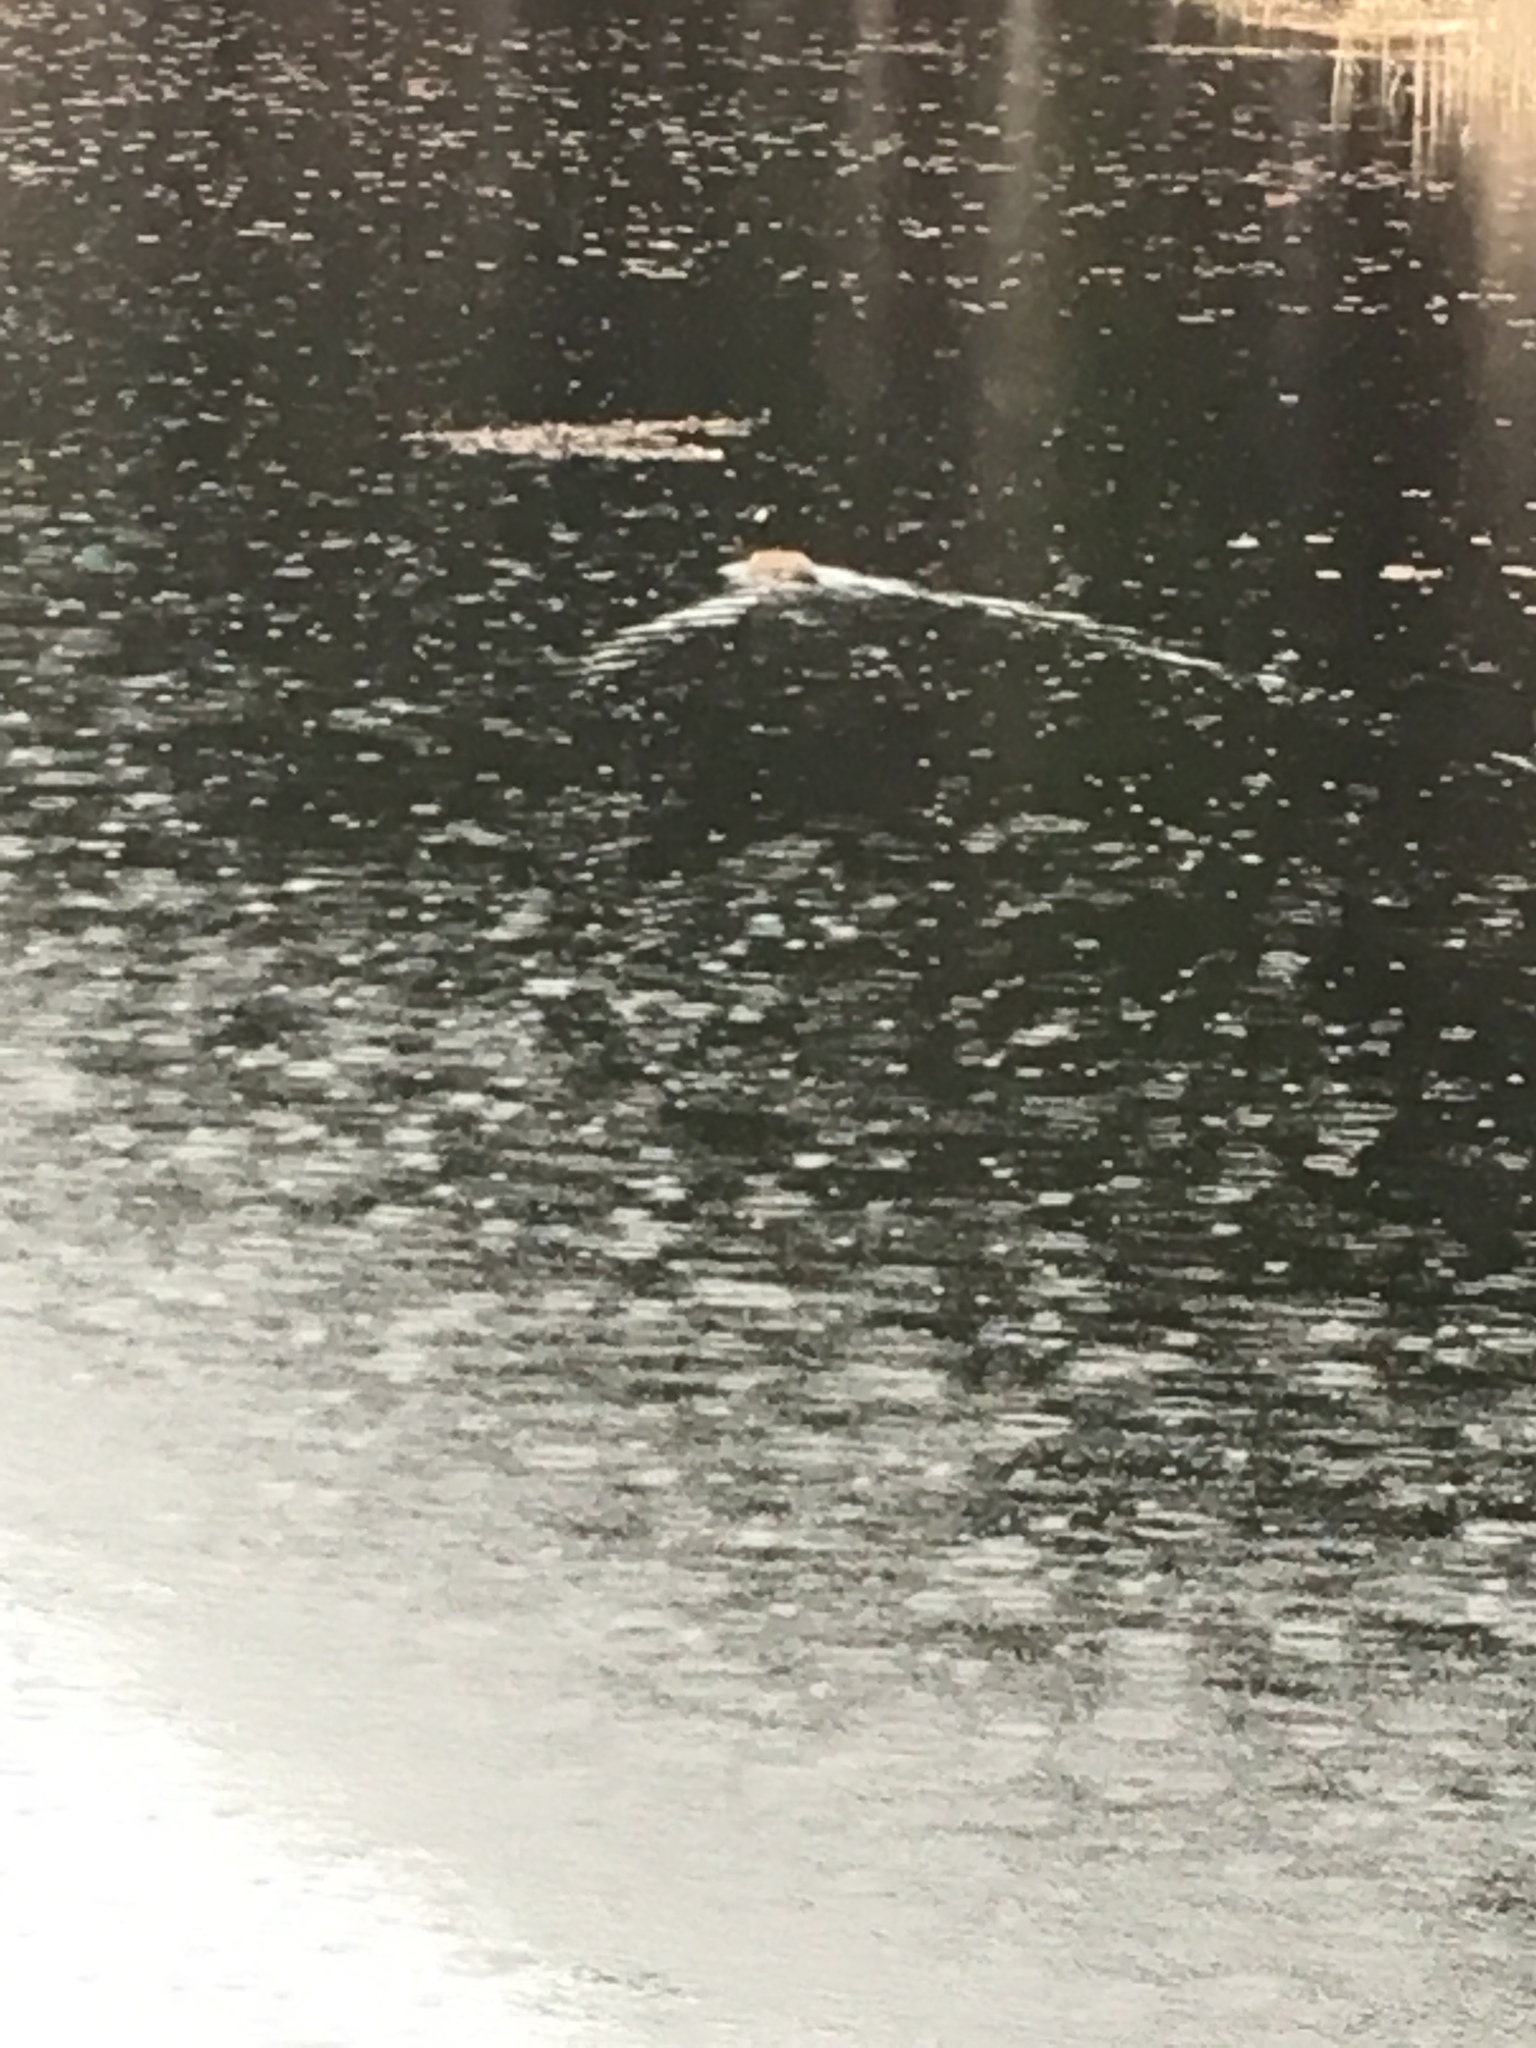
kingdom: Animalia
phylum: Chordata
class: Aves
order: Anseriformes
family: Anatidae
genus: Branta
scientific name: Branta canadensis
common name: Canada goose
